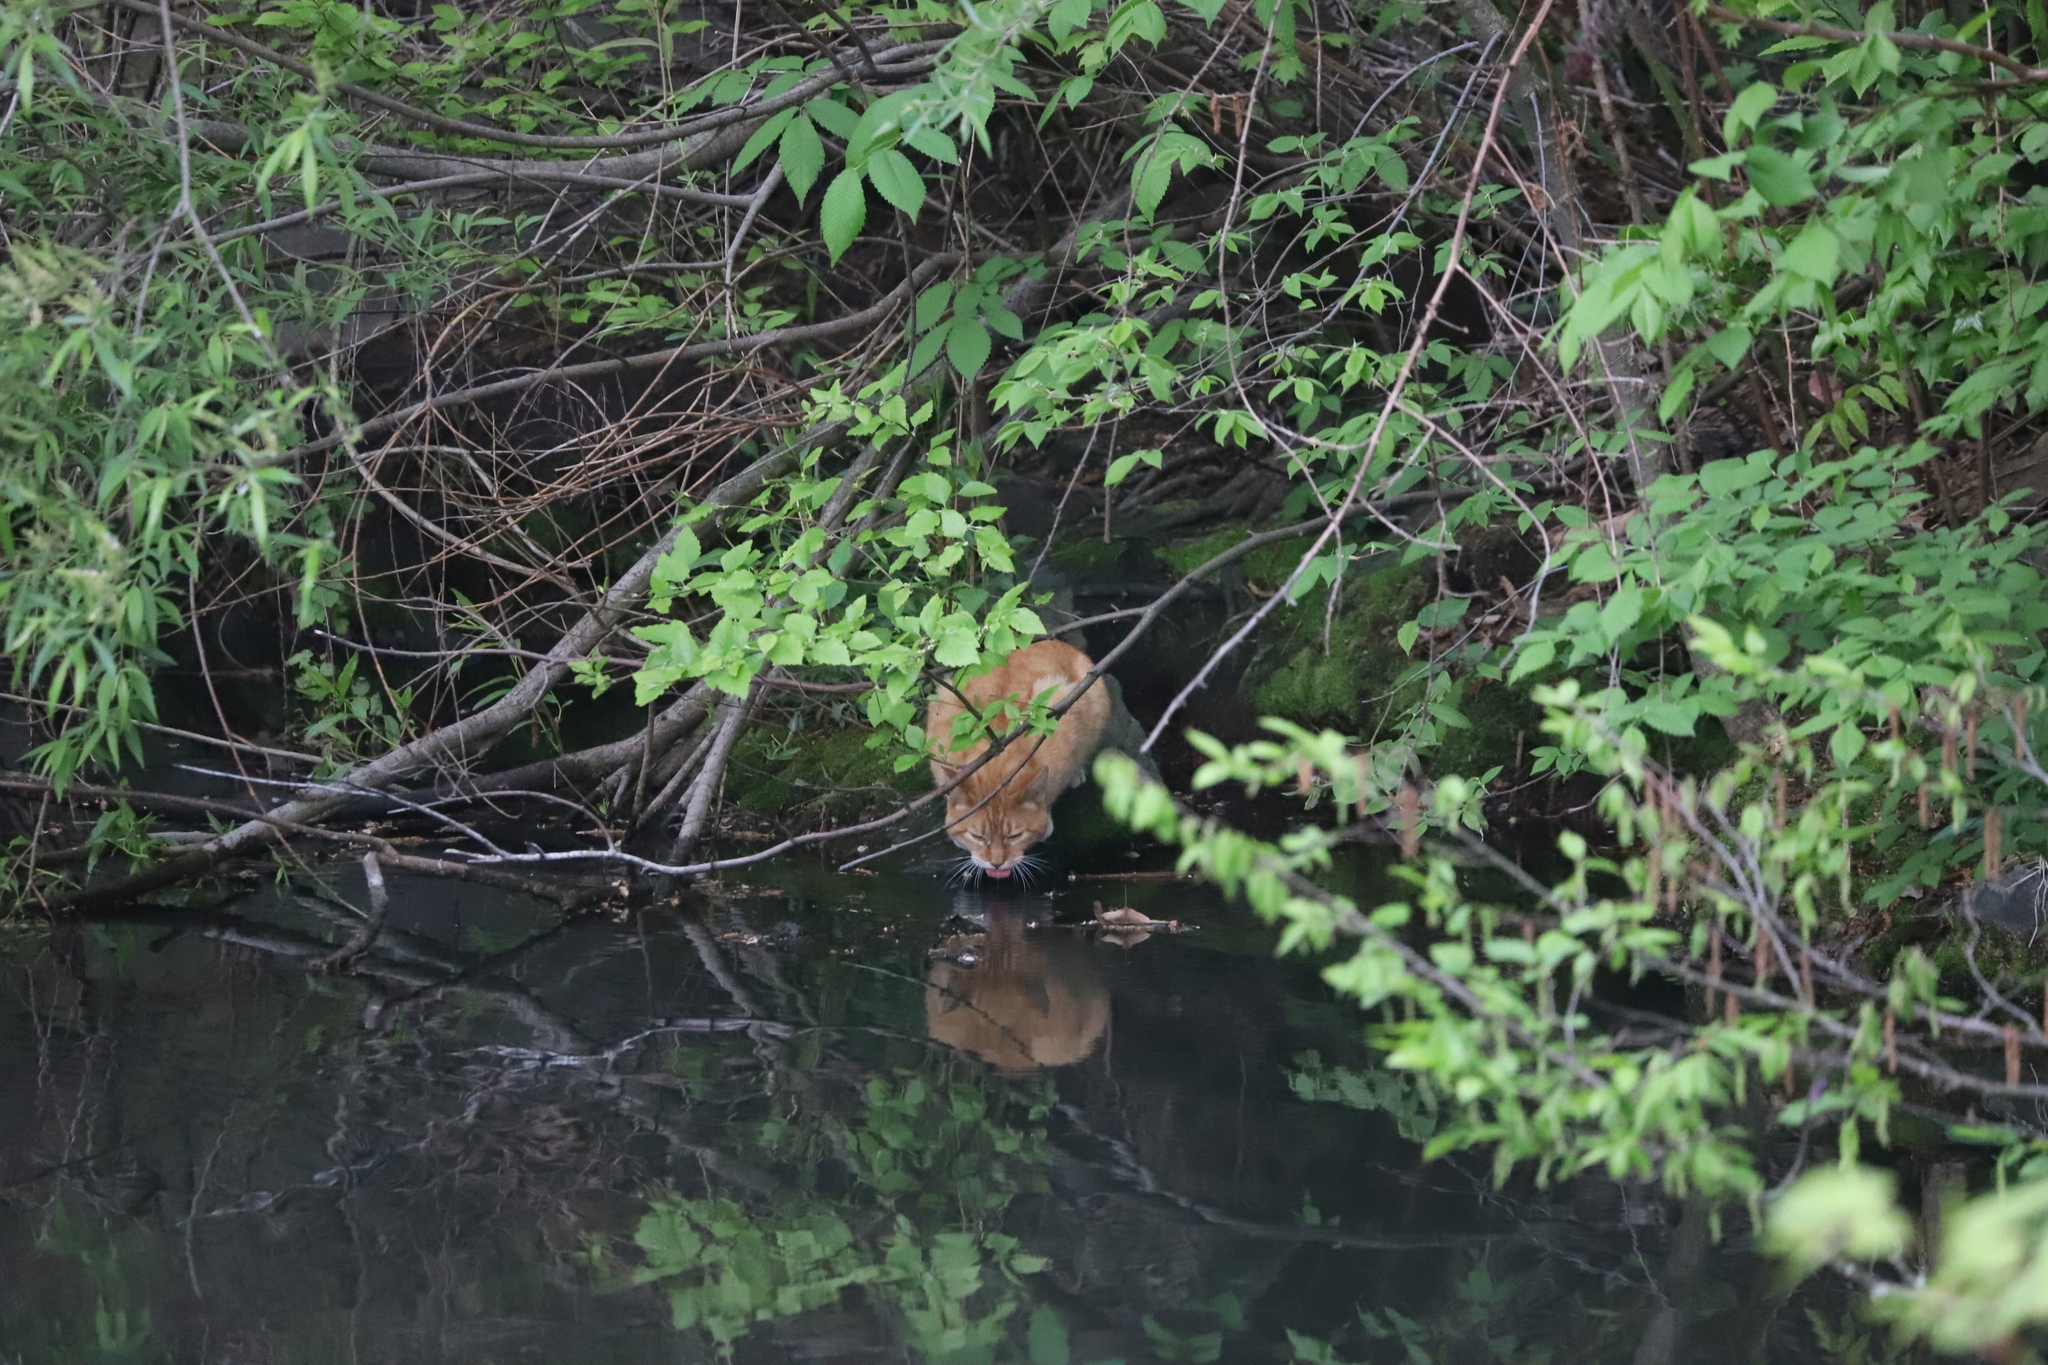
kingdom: Animalia
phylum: Chordata
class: Mammalia
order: Carnivora
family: Felidae
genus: Felis
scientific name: Felis catus
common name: Domestic cat
